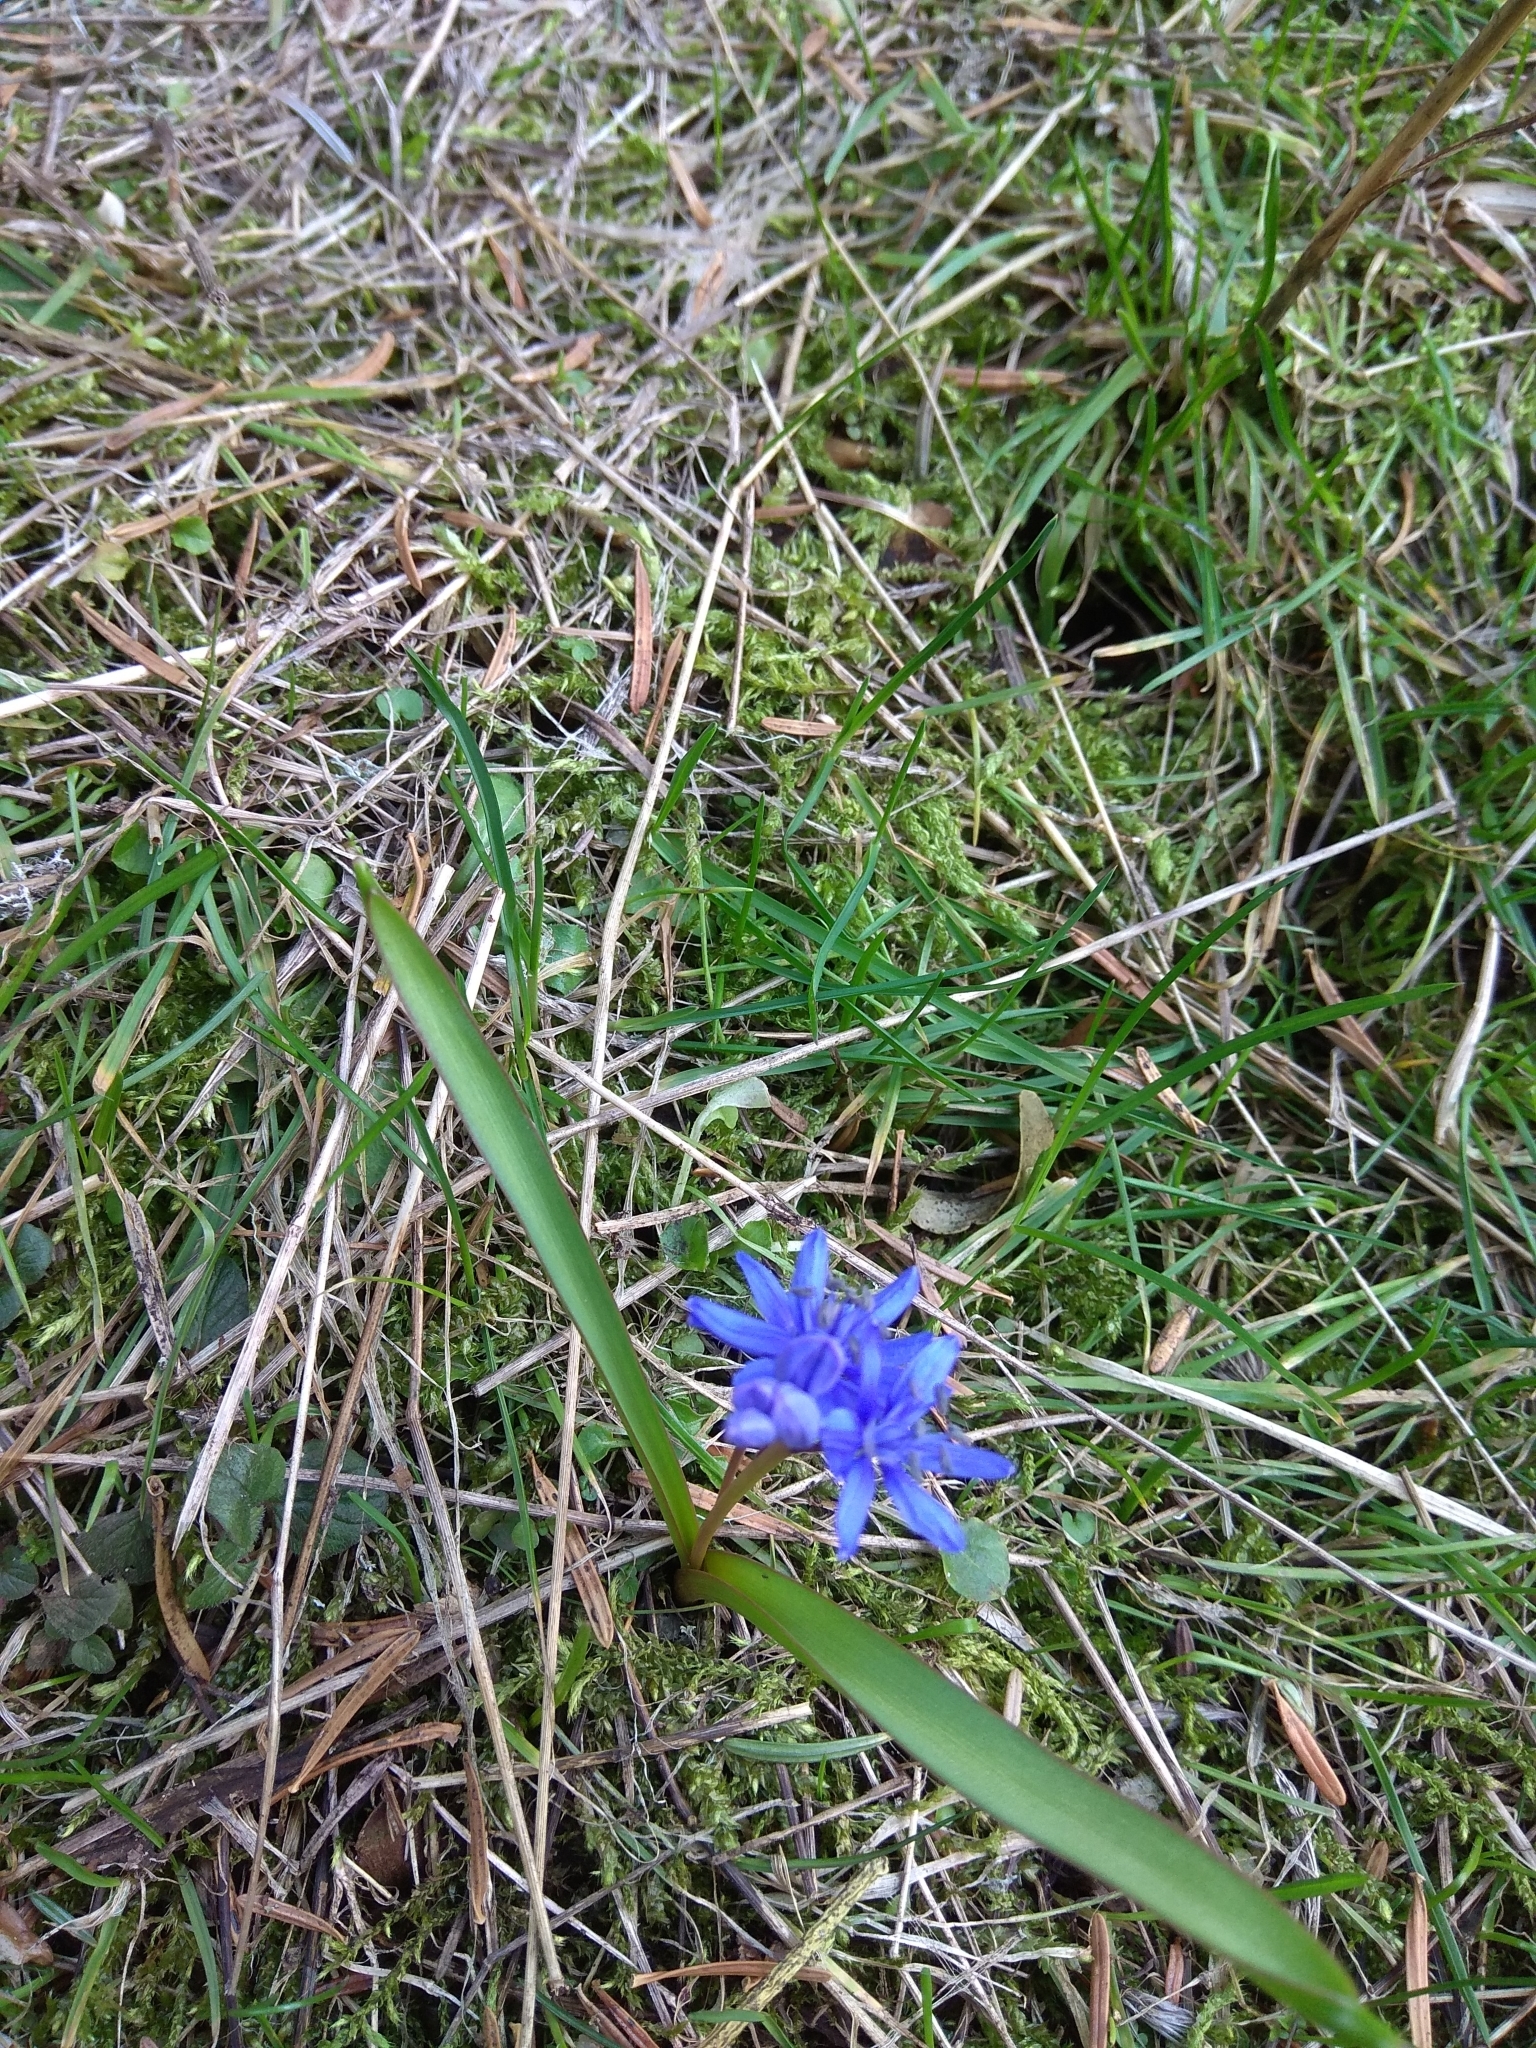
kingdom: Plantae
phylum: Tracheophyta
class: Liliopsida
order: Asparagales
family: Asparagaceae
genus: Scilla
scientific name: Scilla bifolia
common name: Alpine squill
